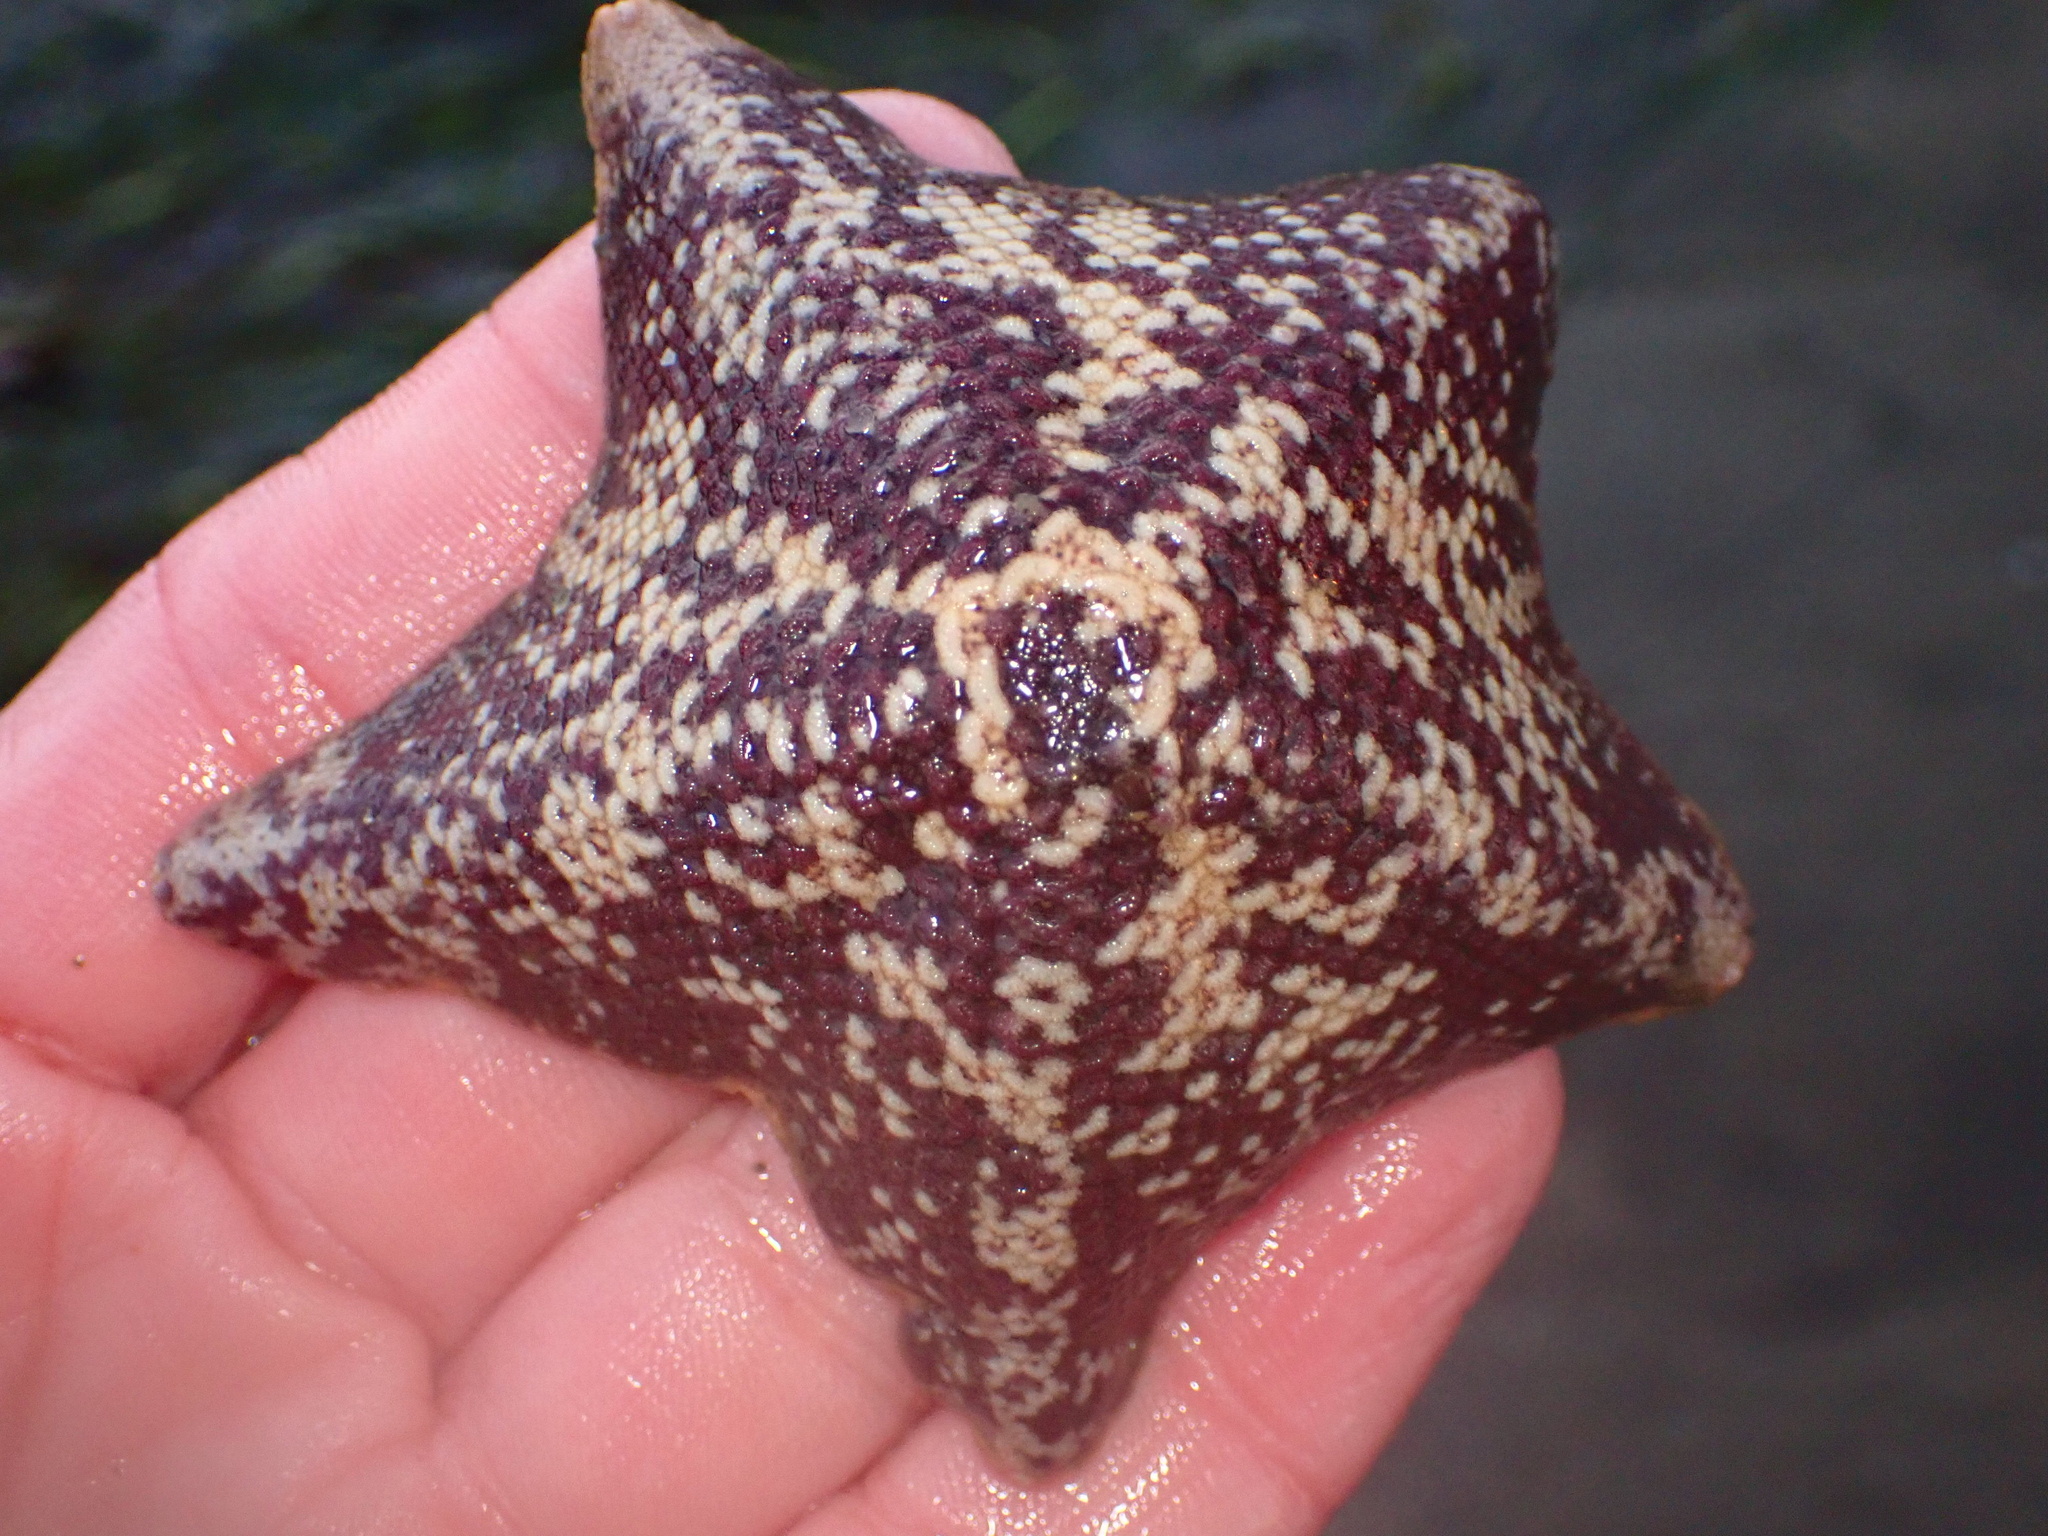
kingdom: Animalia
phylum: Echinodermata
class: Asteroidea
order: Valvatida
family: Asterinidae
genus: Patiria
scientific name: Patiria miniata
